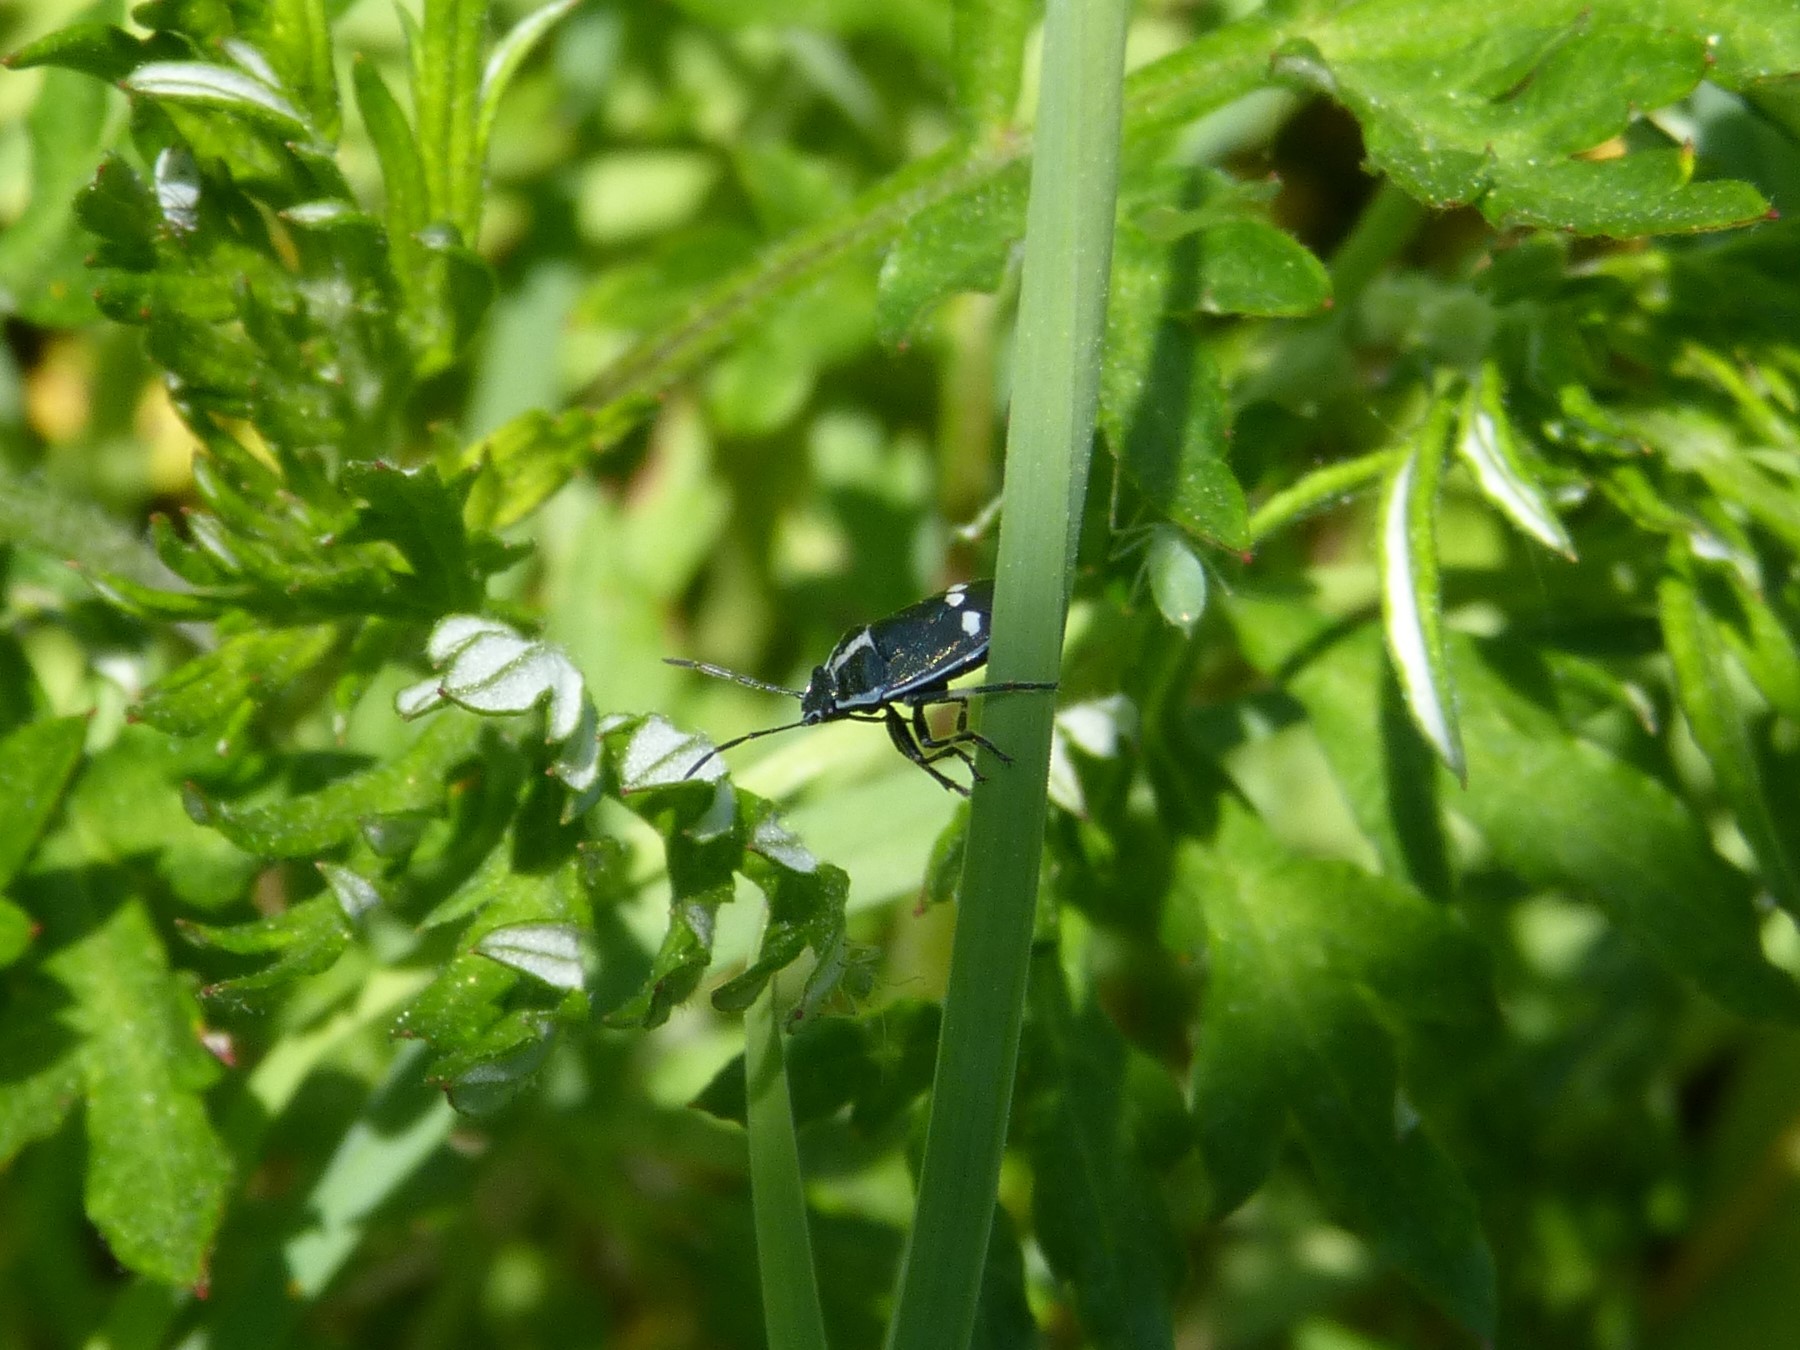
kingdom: Animalia
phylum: Arthropoda
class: Insecta
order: Hemiptera
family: Pentatomidae
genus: Eurydema
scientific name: Eurydema oleracea
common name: Cabbage bug
